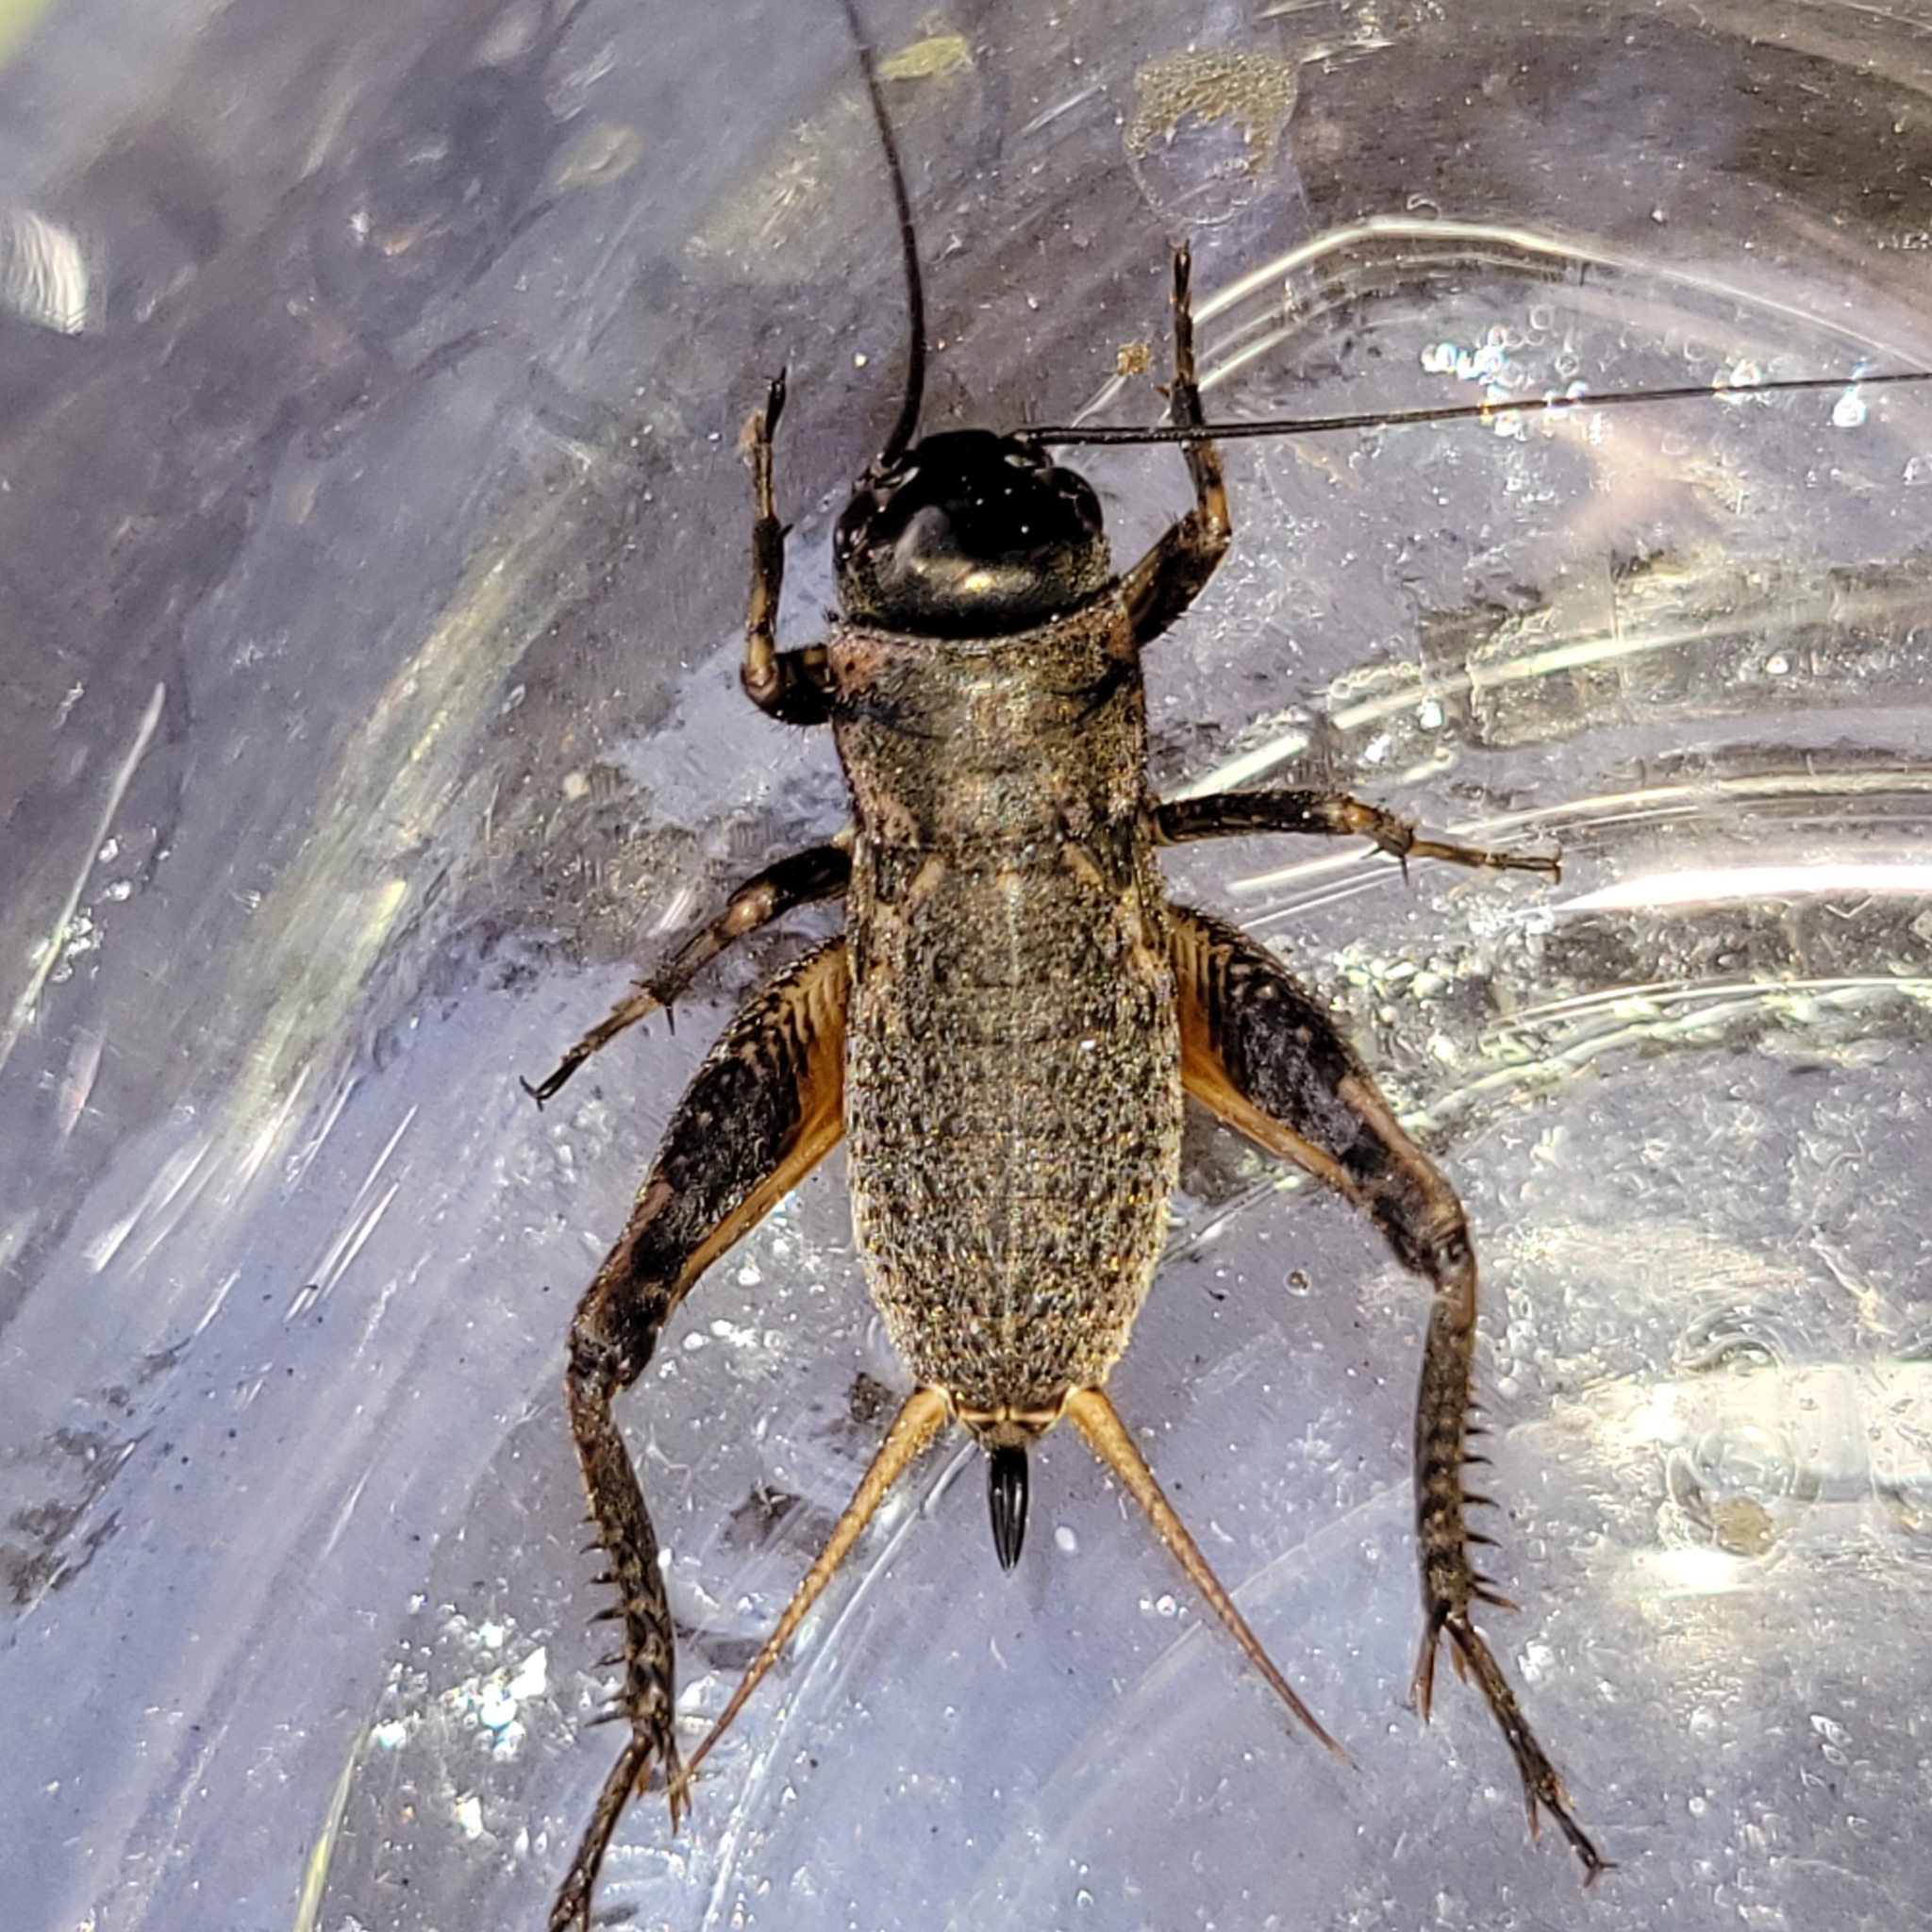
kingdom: Animalia
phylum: Arthropoda
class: Insecta
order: Orthoptera
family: Gryllidae
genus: Gryllus
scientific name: Gryllus pennsylvanicus
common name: Fall field cricket
